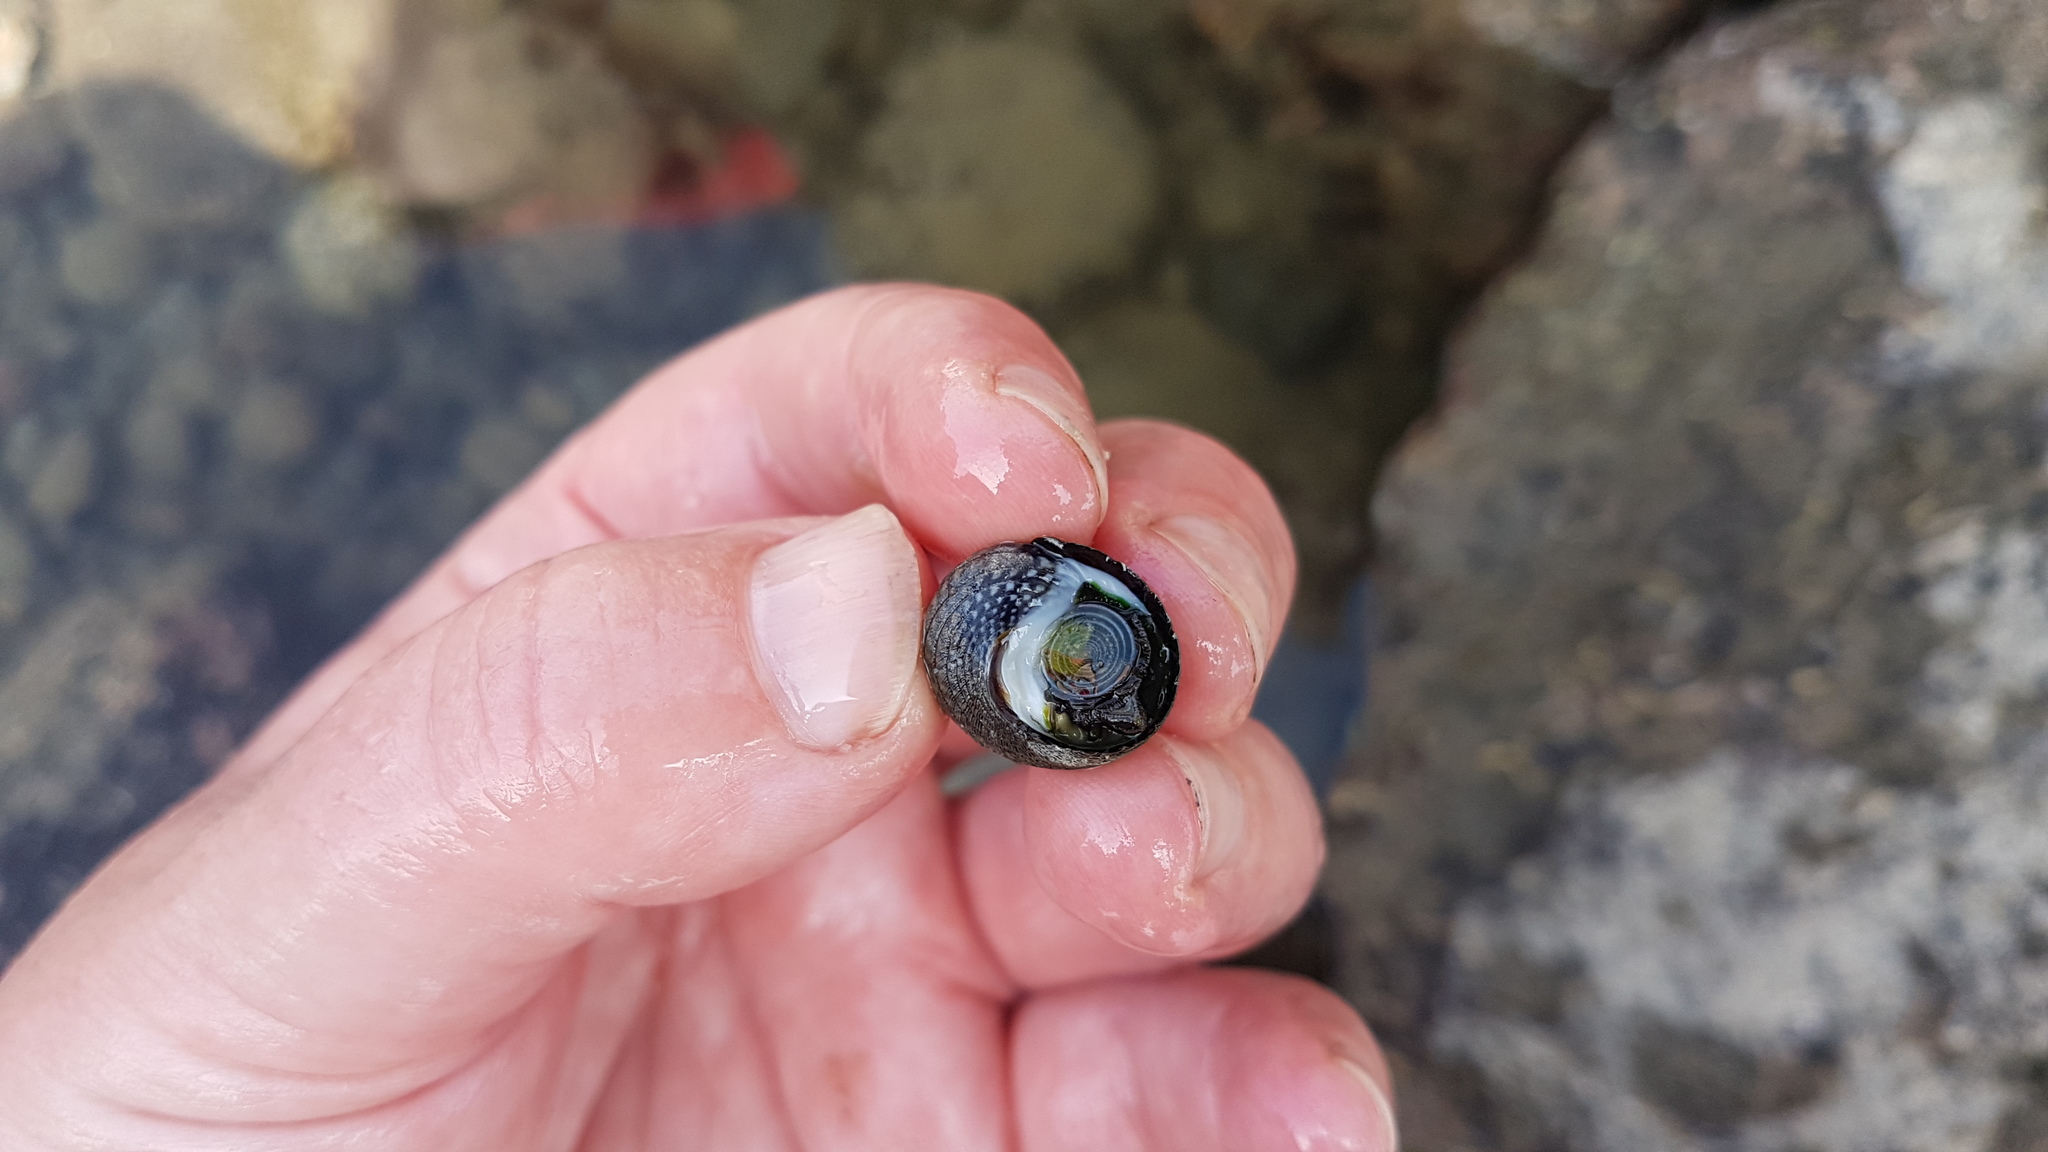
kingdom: Animalia
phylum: Mollusca
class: Gastropoda
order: Trochida
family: Trochidae
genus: Diloma
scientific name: Diloma aethiops
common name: Scorched monodont
